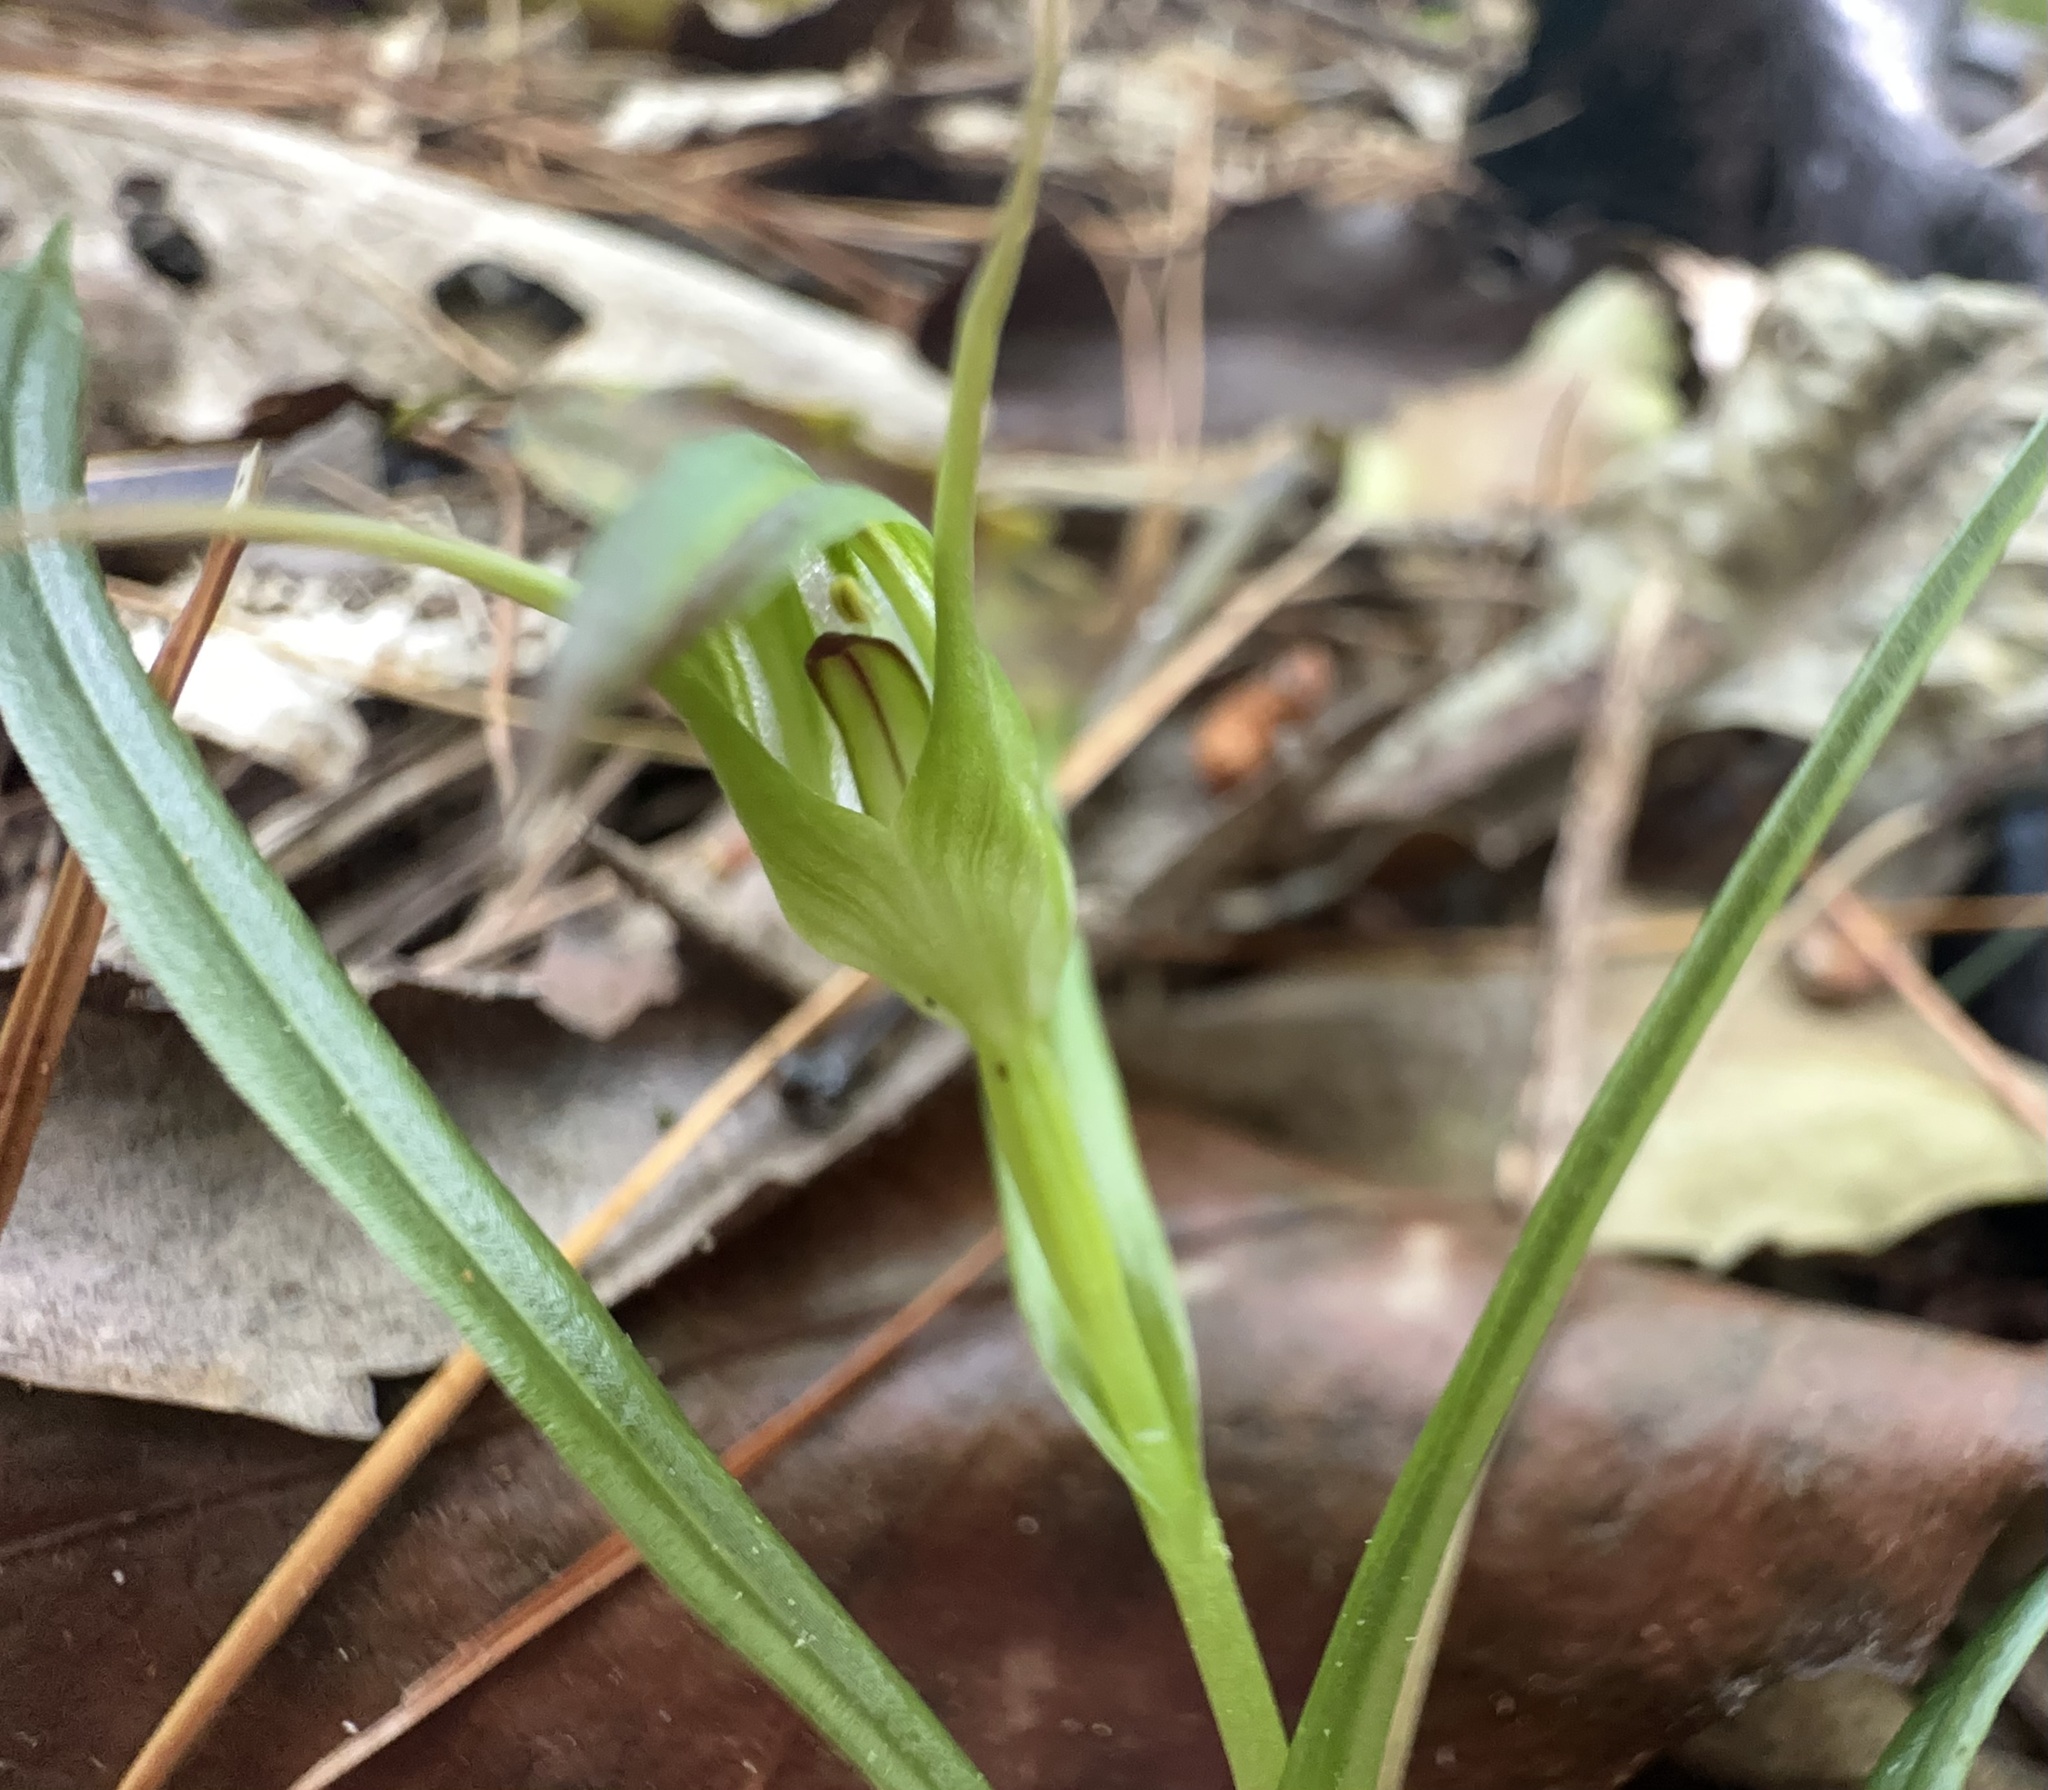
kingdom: Plantae
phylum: Tracheophyta
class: Liliopsida
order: Asparagales
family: Orchidaceae
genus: Pterostylis
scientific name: Pterostylis graminea
